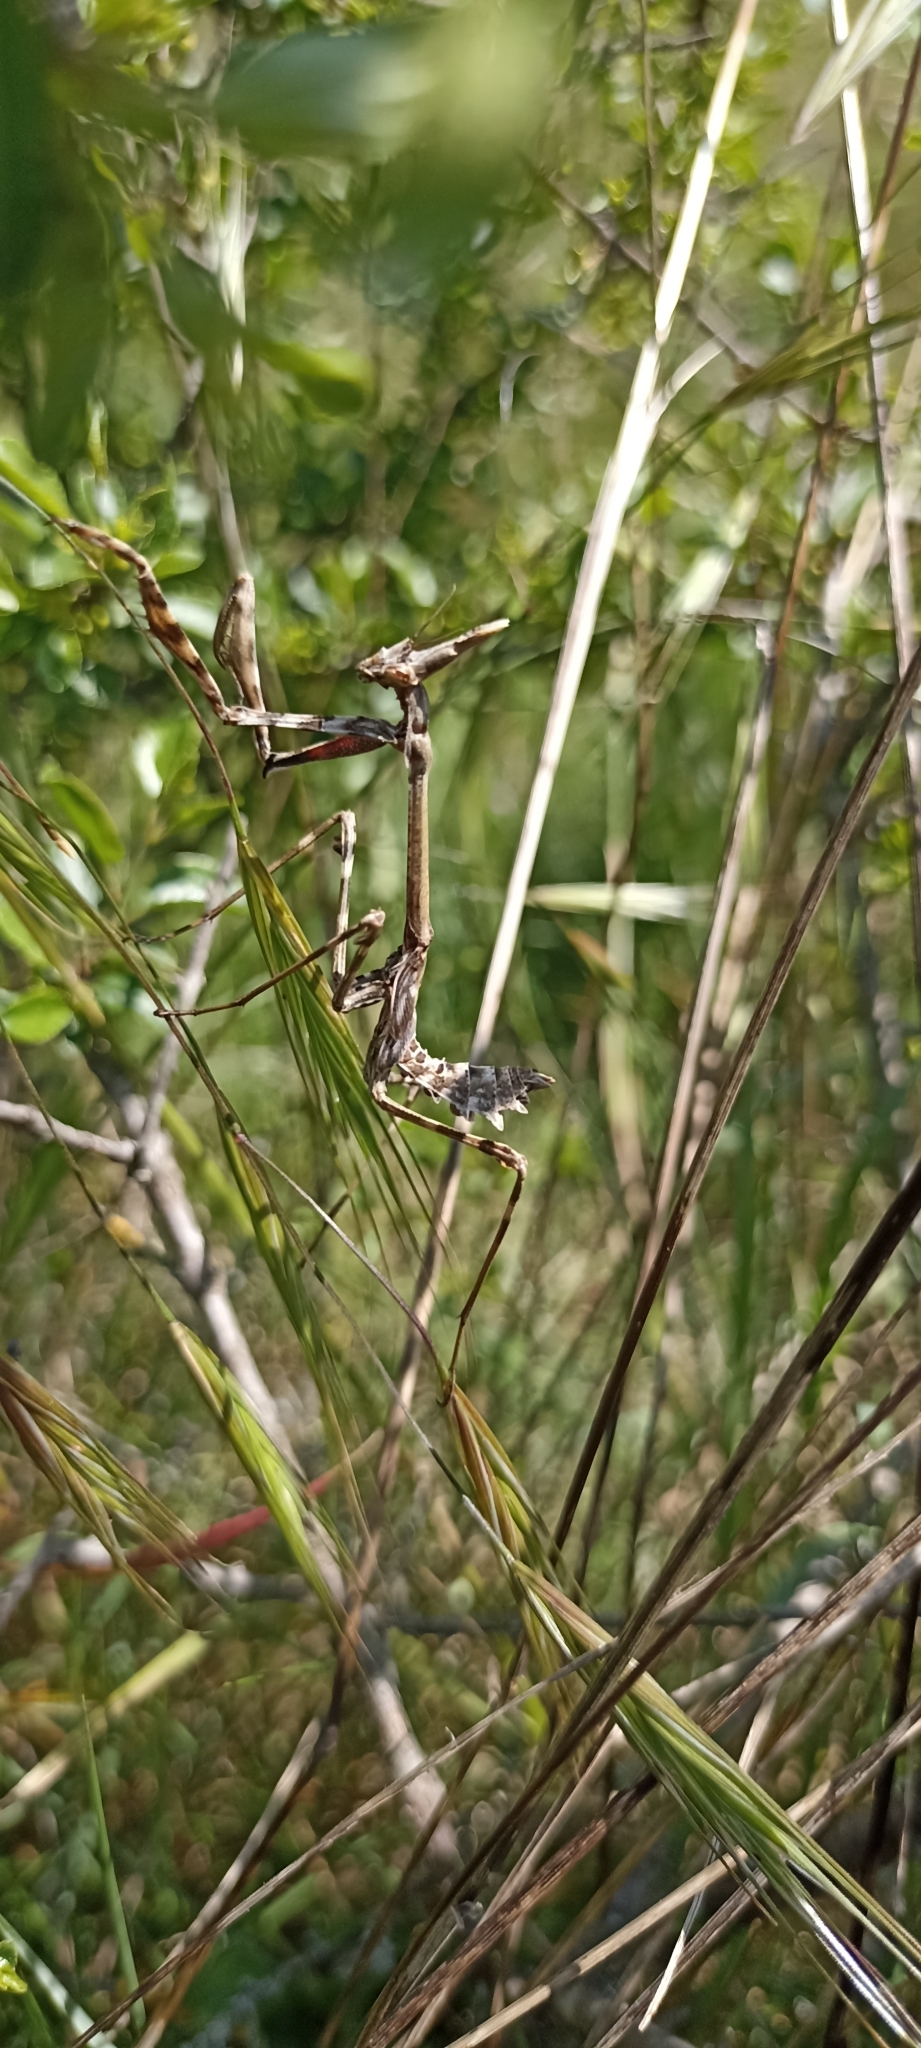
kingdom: Animalia
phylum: Arthropoda
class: Insecta
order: Mantodea
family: Empusidae
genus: Empusa
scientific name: Empusa pennata
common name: Conehead mantis
